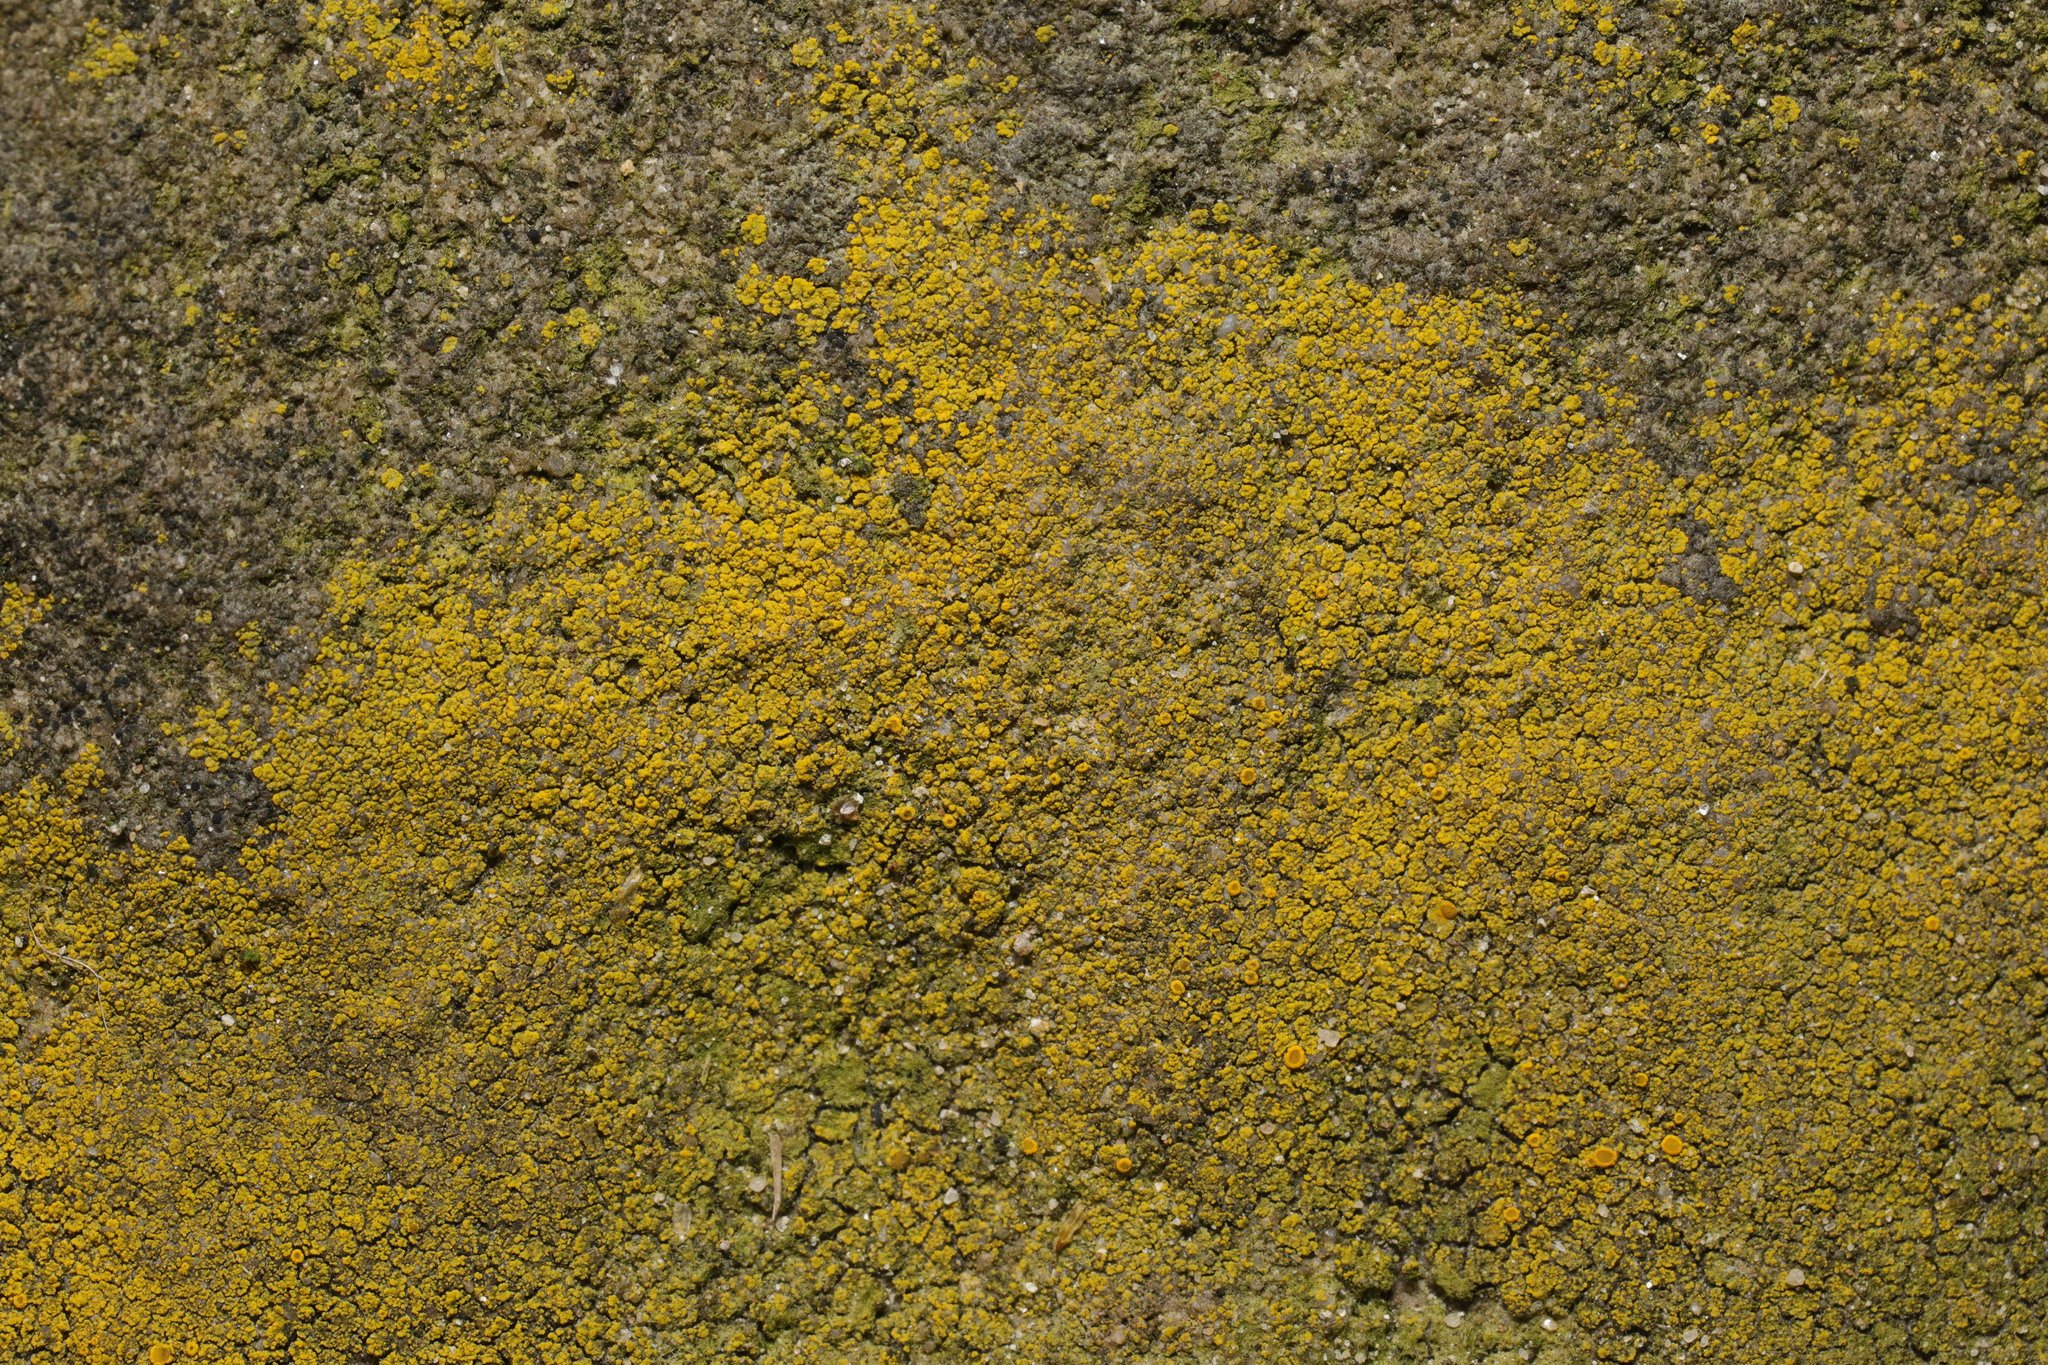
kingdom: Fungi
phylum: Ascomycota
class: Candelariomycetes
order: Candelariales
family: Candelariaceae
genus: Candelariella
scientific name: Candelariella vitellina
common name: Common goldspeck
